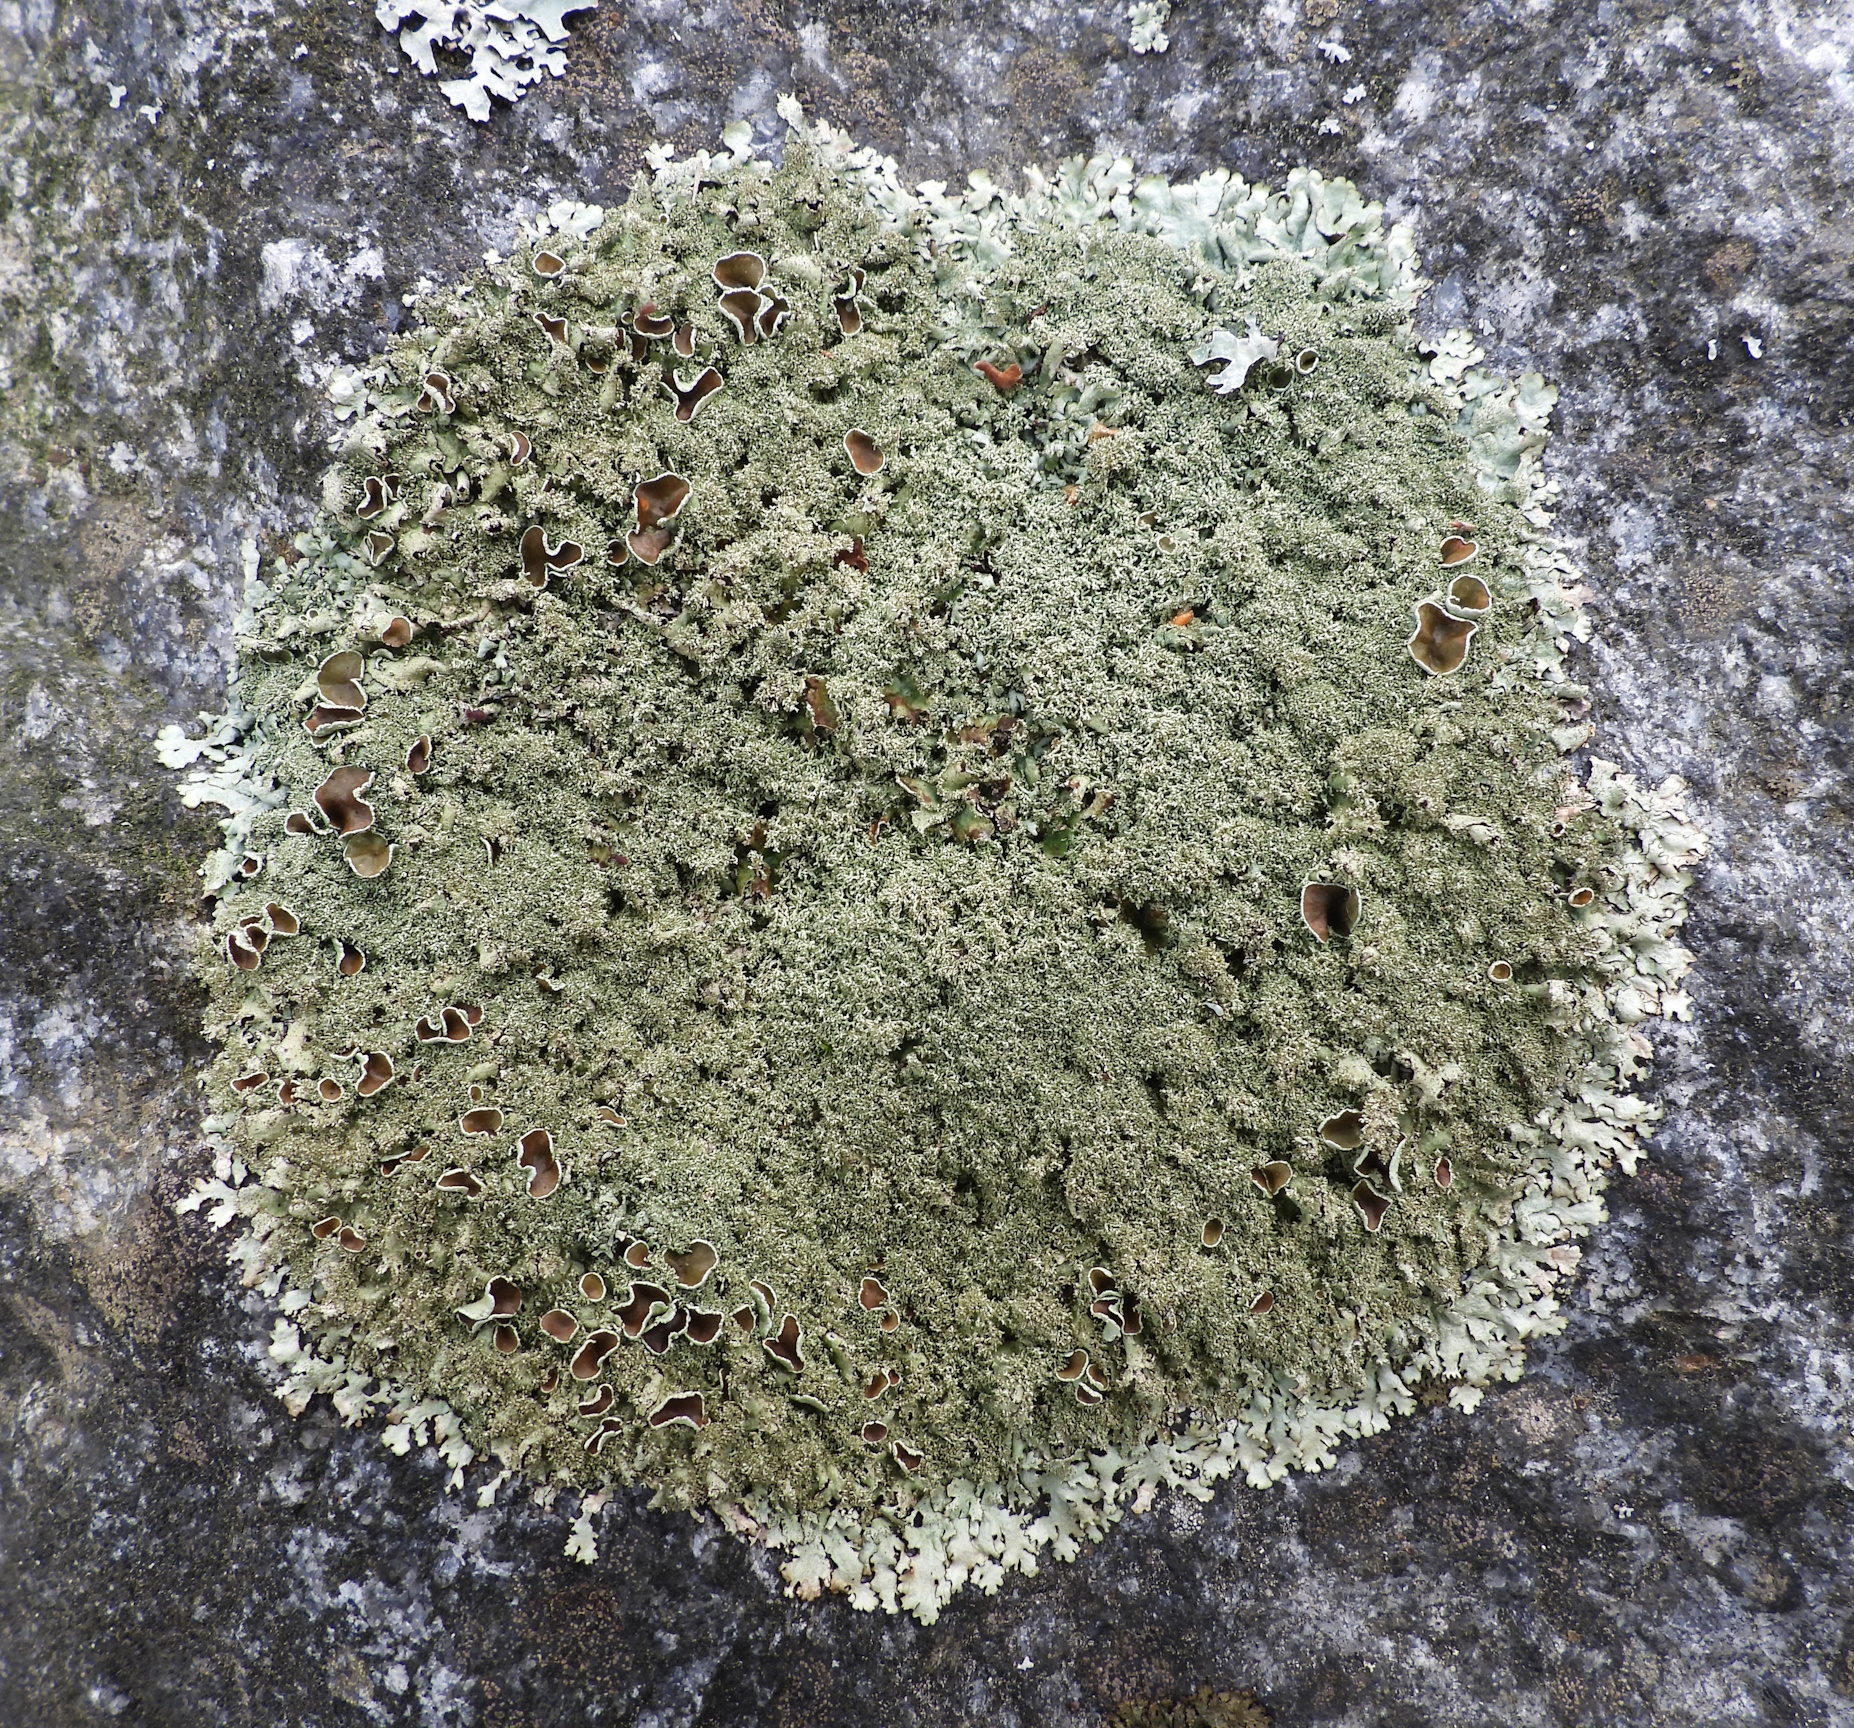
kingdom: Fungi
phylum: Ascomycota
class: Lecanoromycetes
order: Lecanorales
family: Parmeliaceae
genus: Xanthoparmelia
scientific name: Xanthoparmelia conspersa
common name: Peppered rock shield
